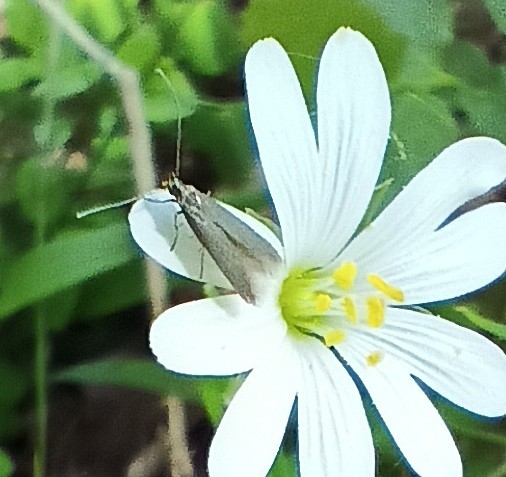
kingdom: Animalia
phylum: Arthropoda
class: Insecta
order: Lepidoptera
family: Coleophoridae
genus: Metriotes
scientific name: Metriotes lutarea
